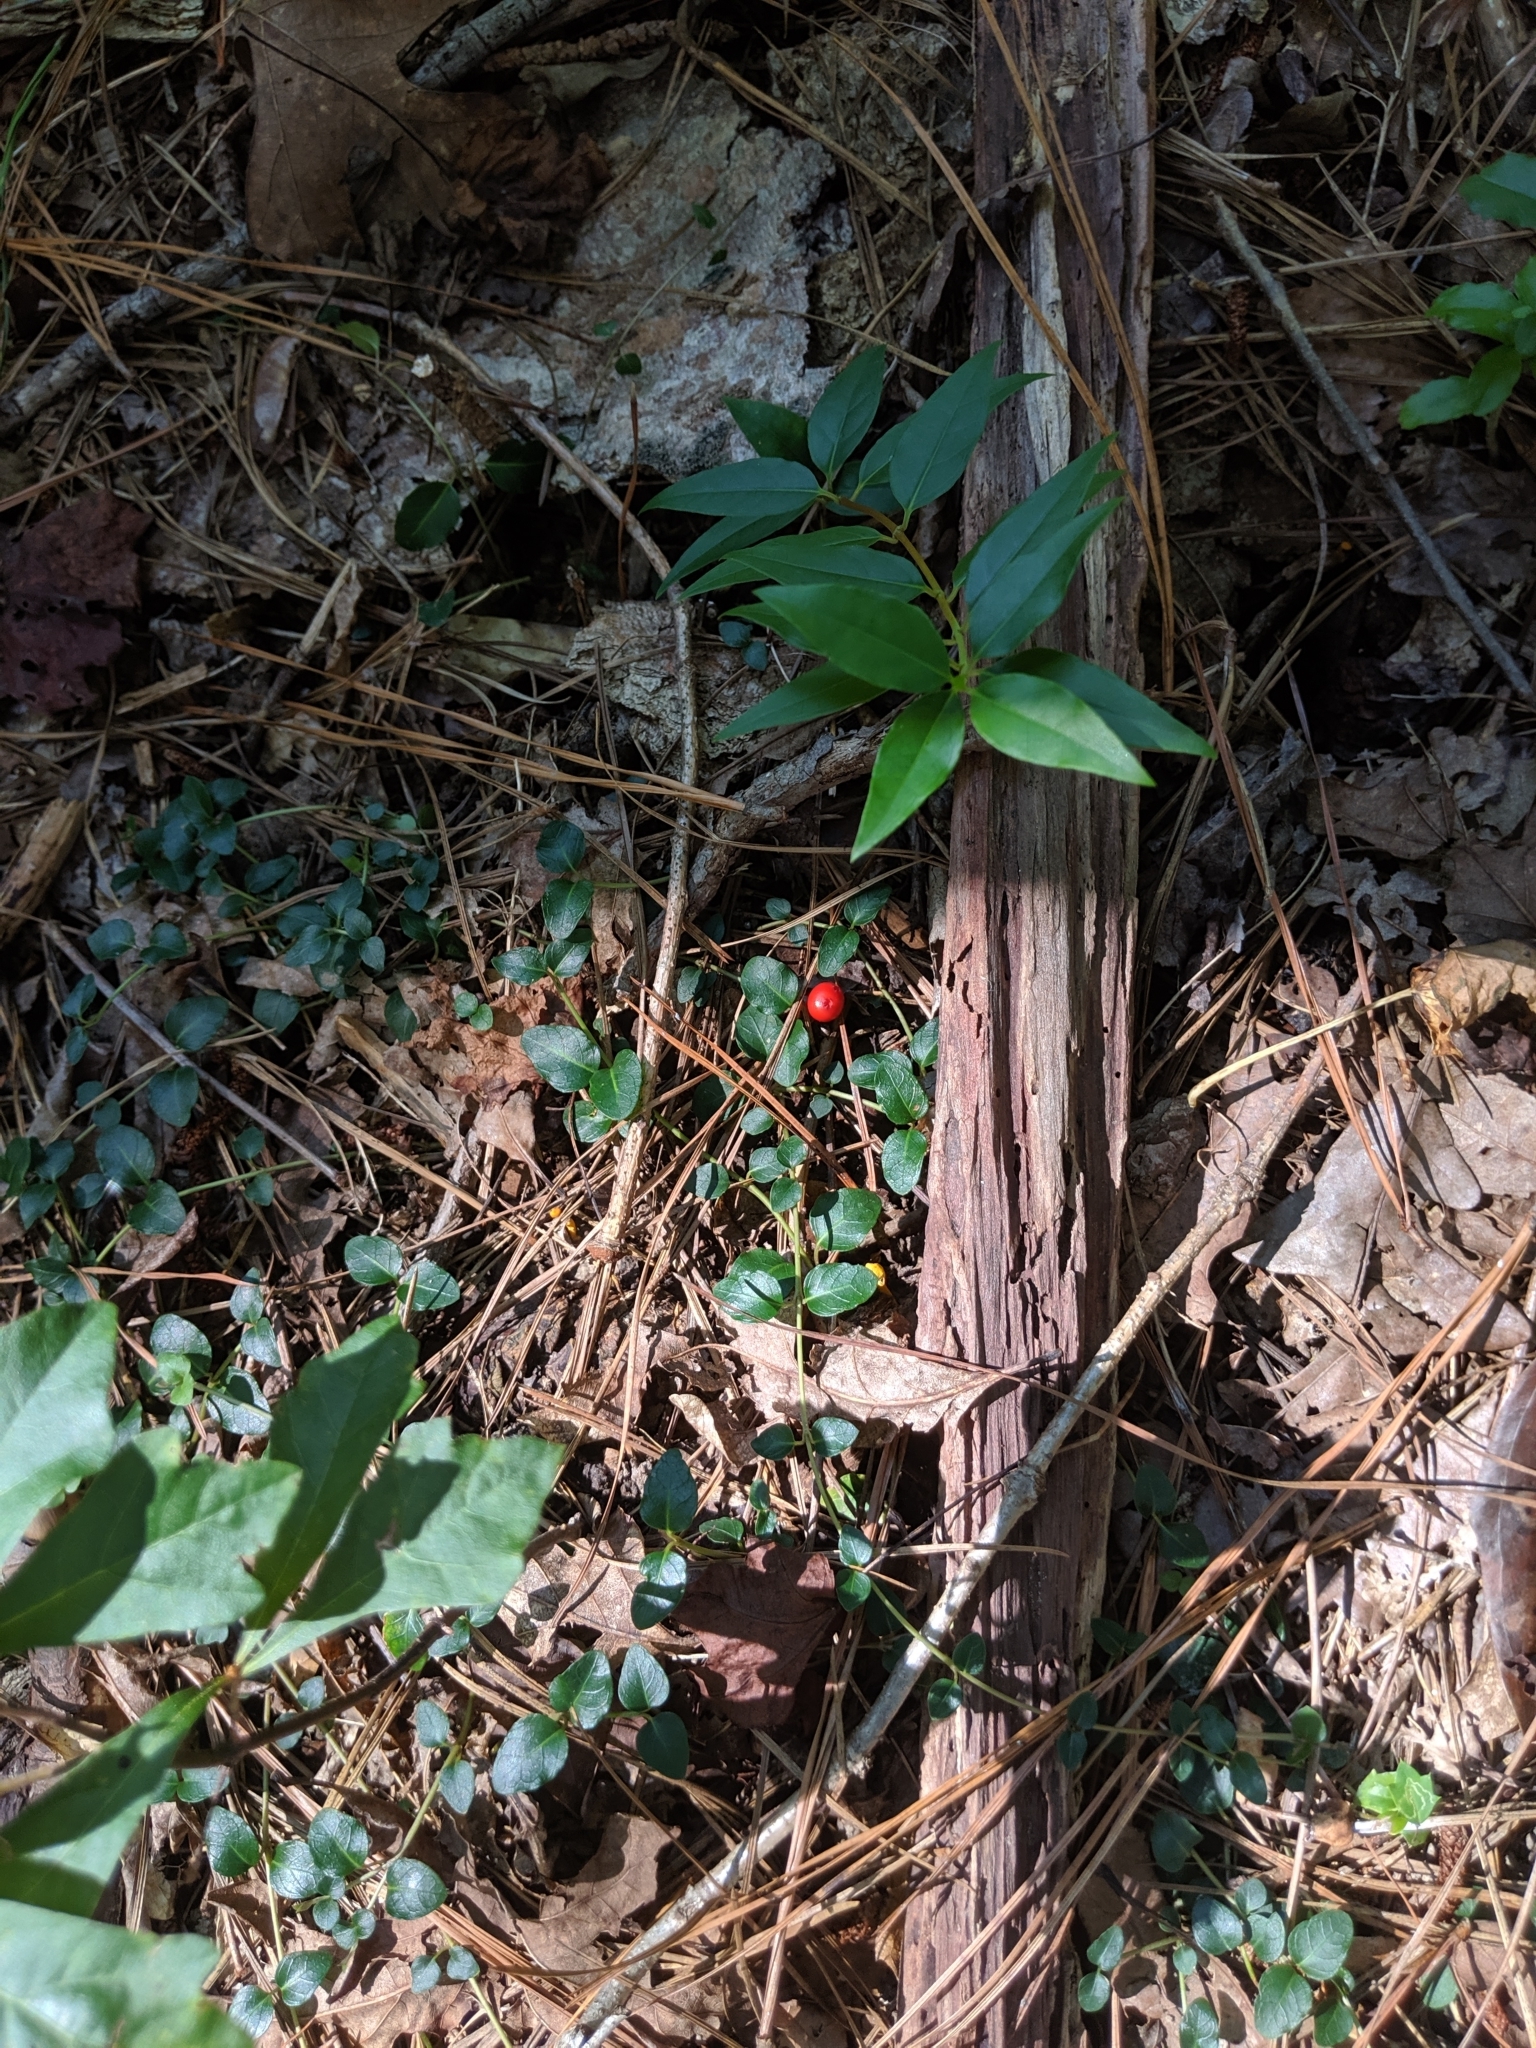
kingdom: Plantae
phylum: Tracheophyta
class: Magnoliopsida
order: Gentianales
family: Rubiaceae
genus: Mitchella
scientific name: Mitchella repens
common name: Partridge-berry
